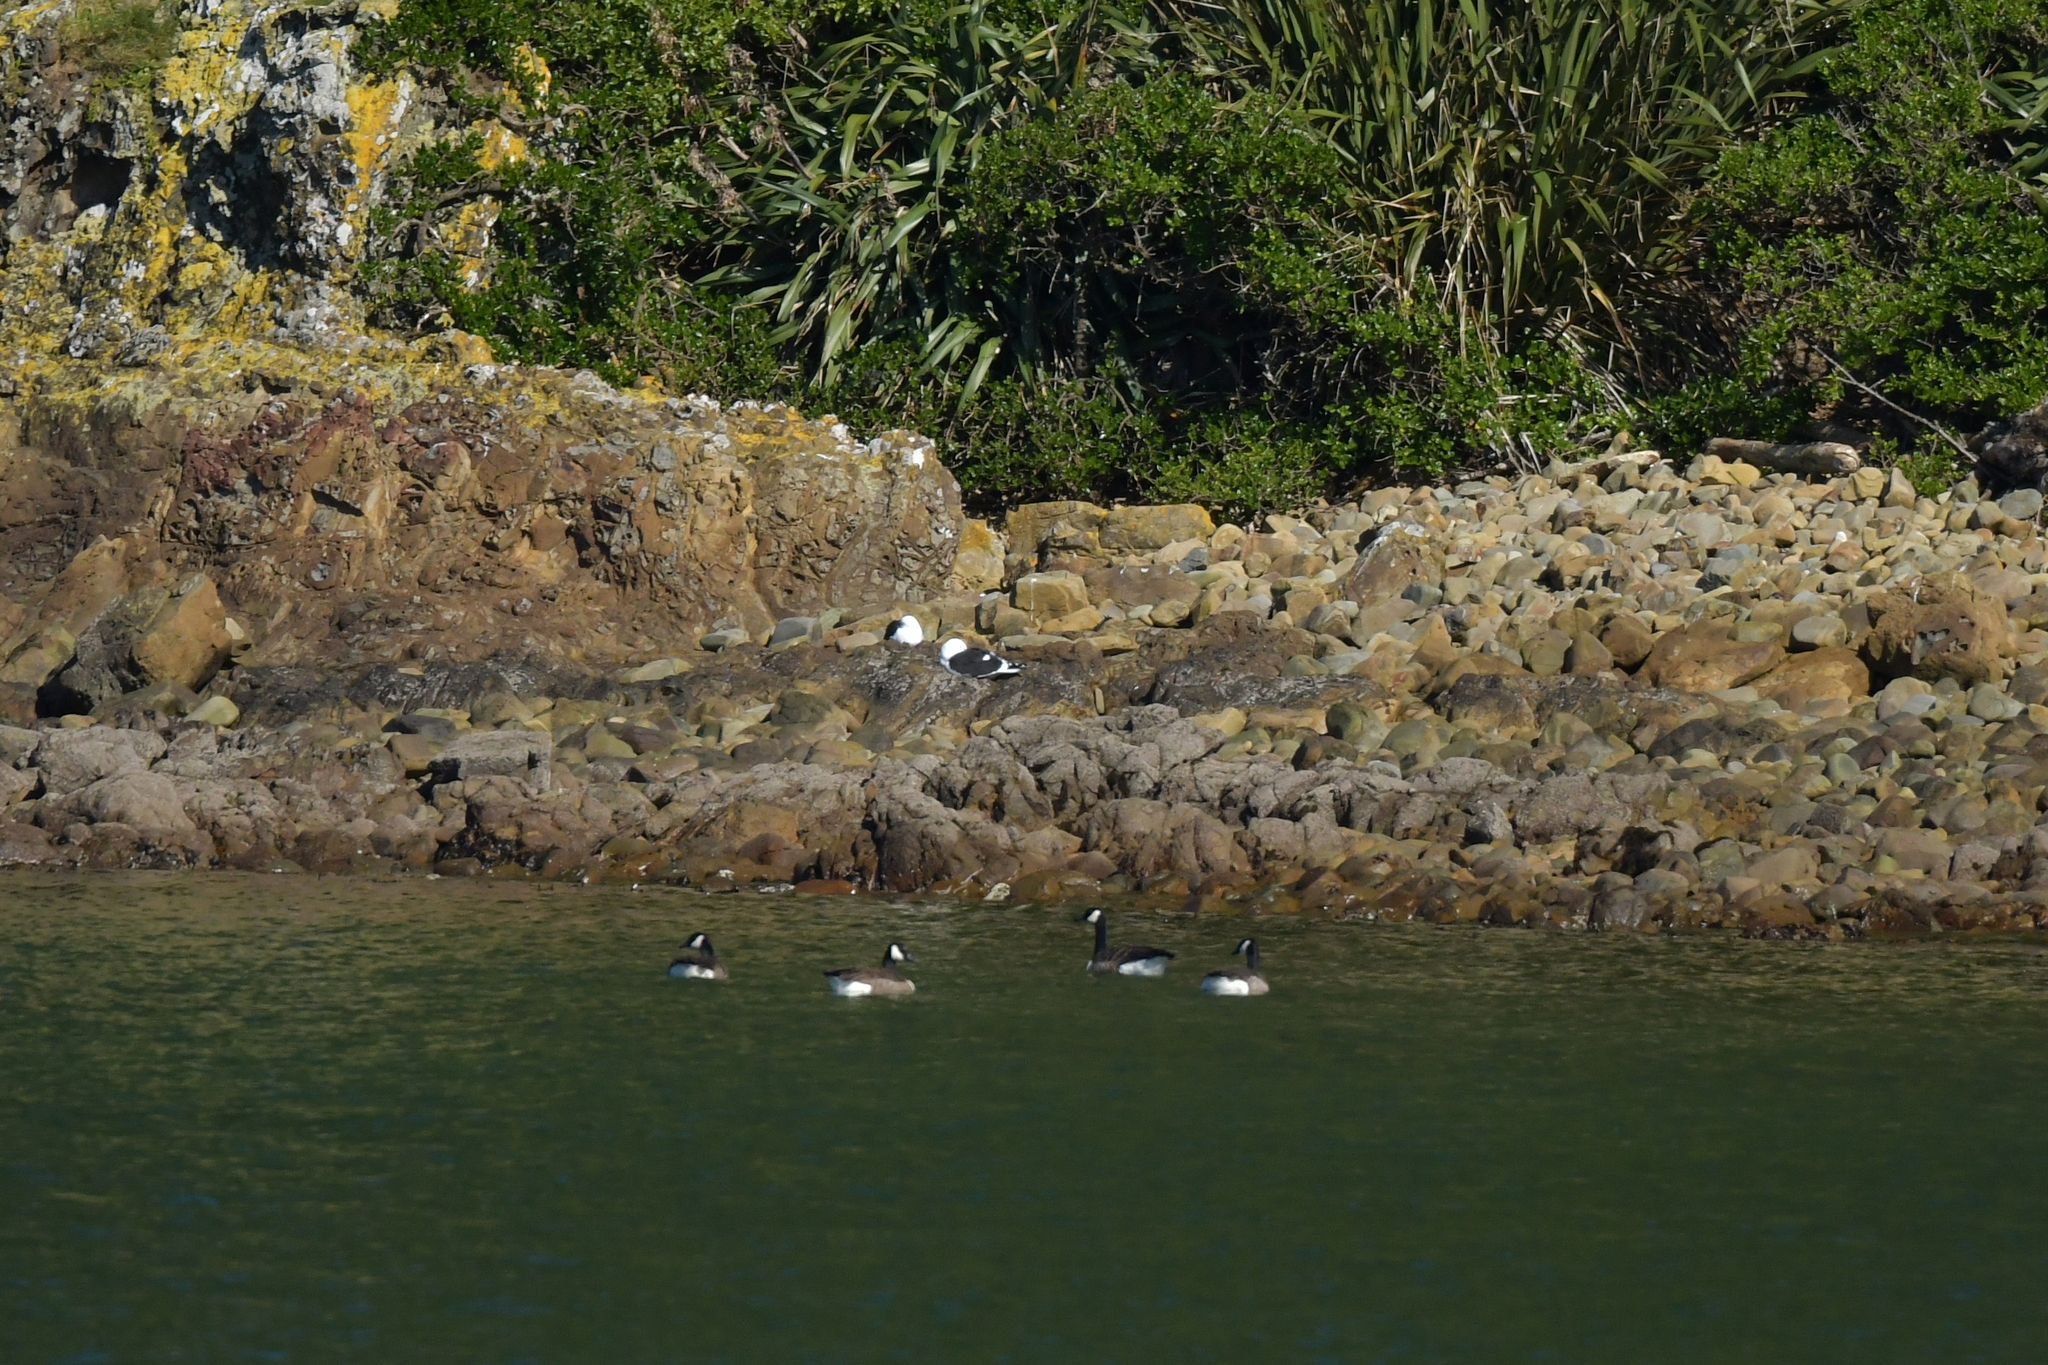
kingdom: Animalia
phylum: Chordata
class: Aves
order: Anseriformes
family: Anatidae
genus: Branta
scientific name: Branta canadensis
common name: Canada goose
